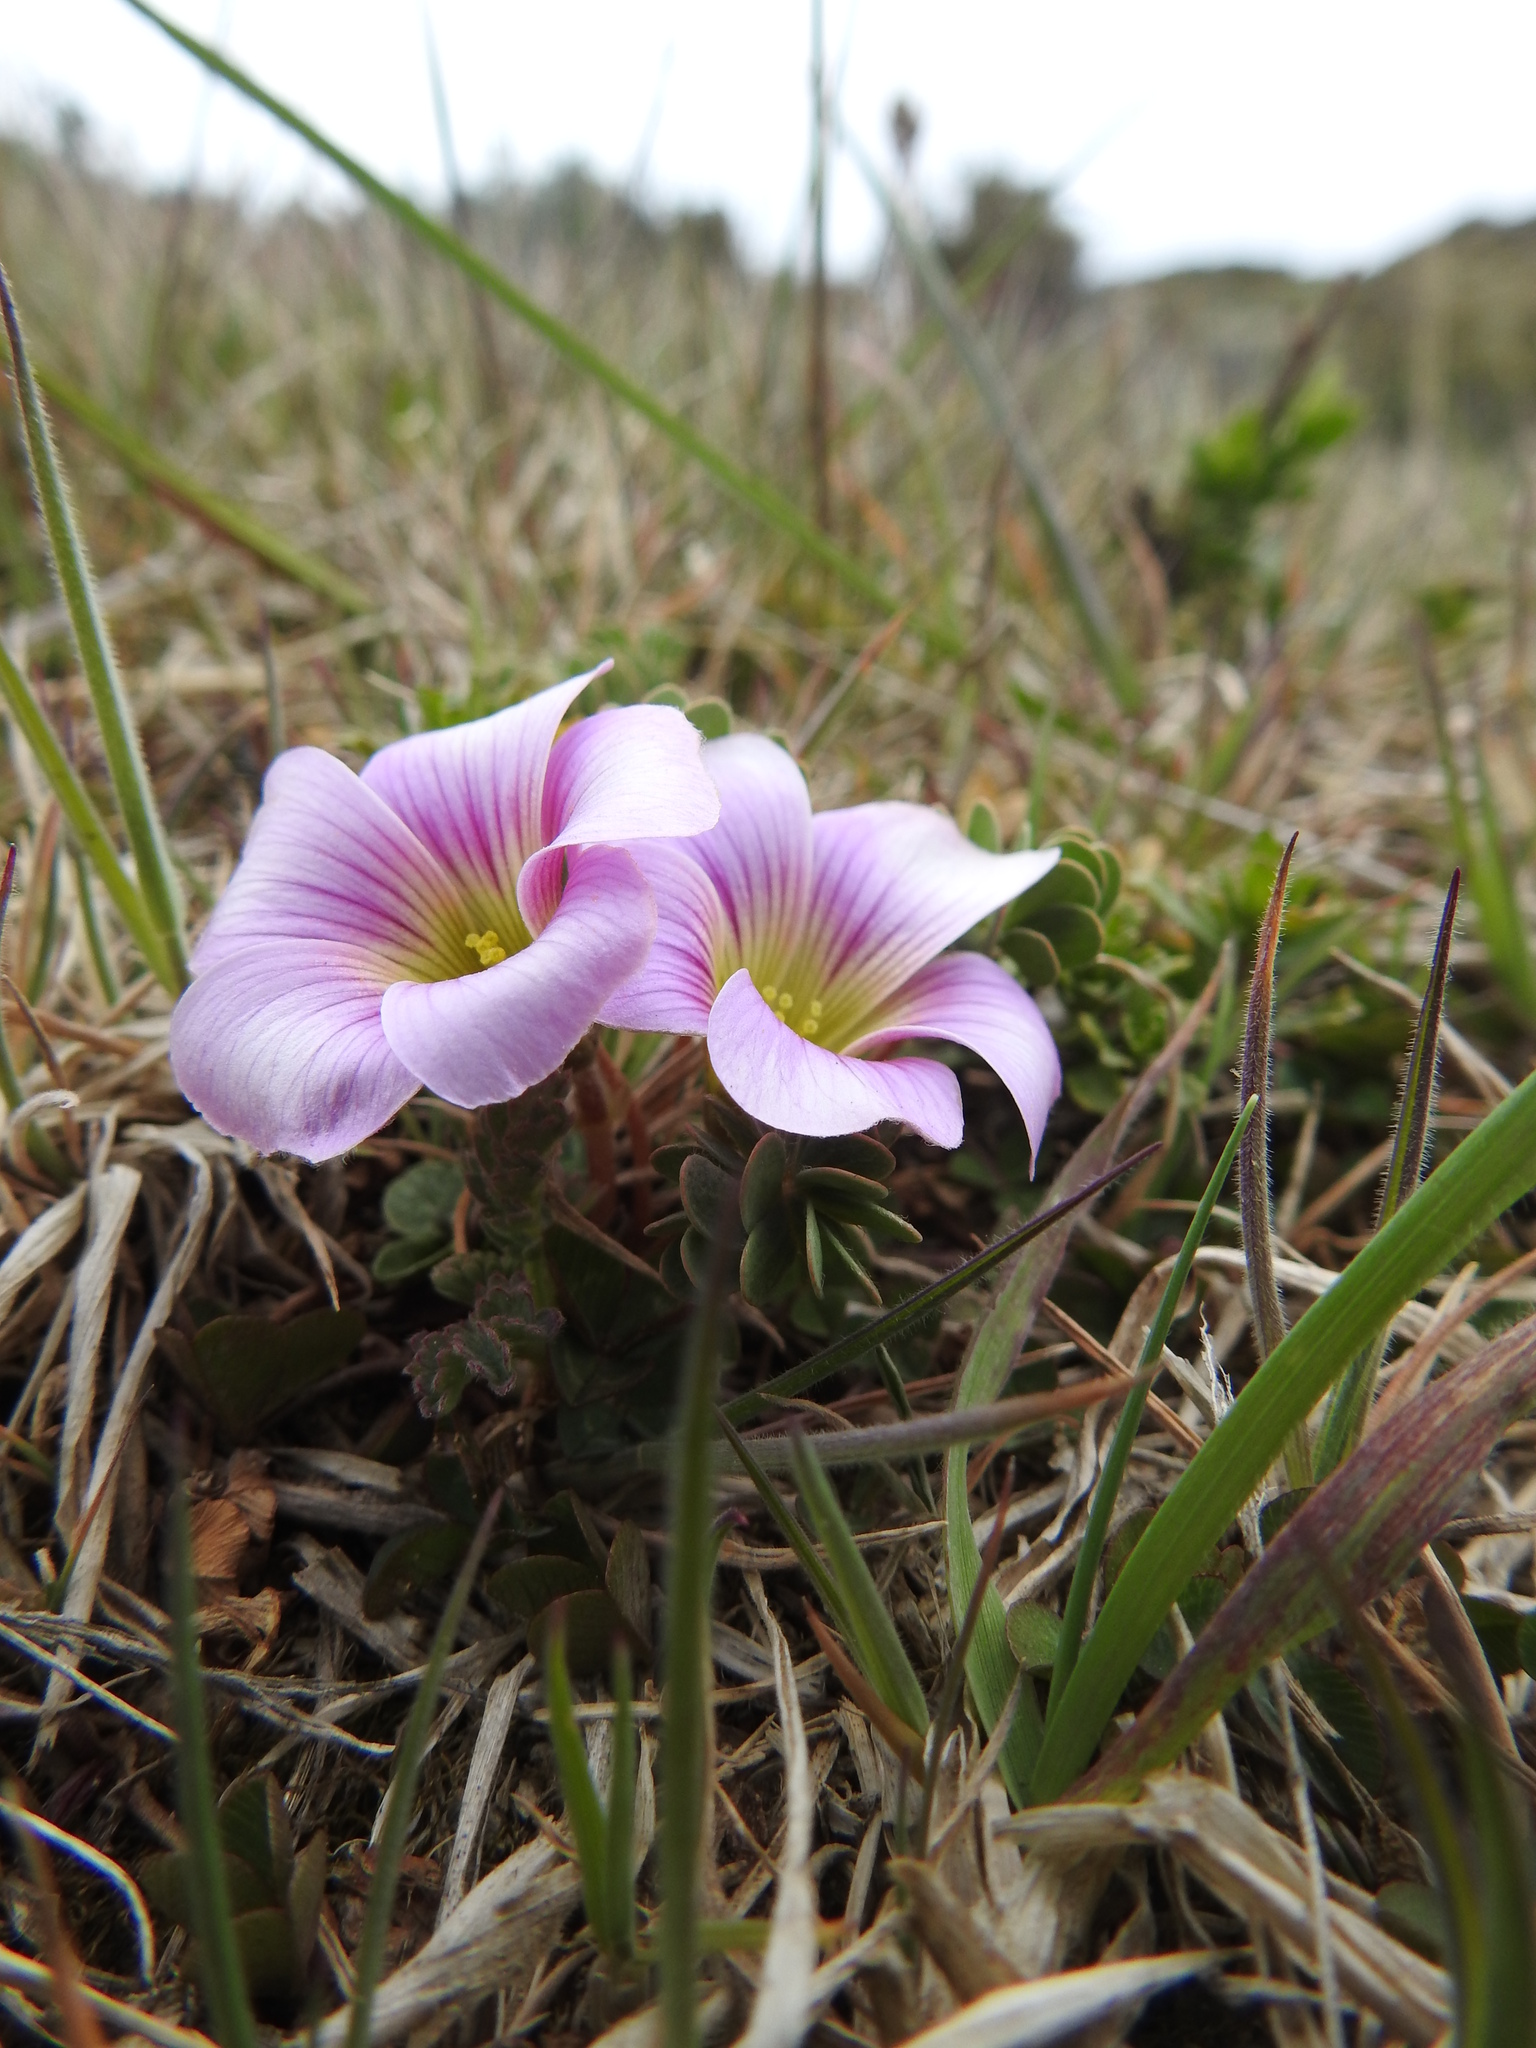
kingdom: Plantae
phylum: Tracheophyta
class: Magnoliopsida
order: Oxalidales
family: Oxalidaceae
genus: Oxalis
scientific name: Oxalis enneaphylla
